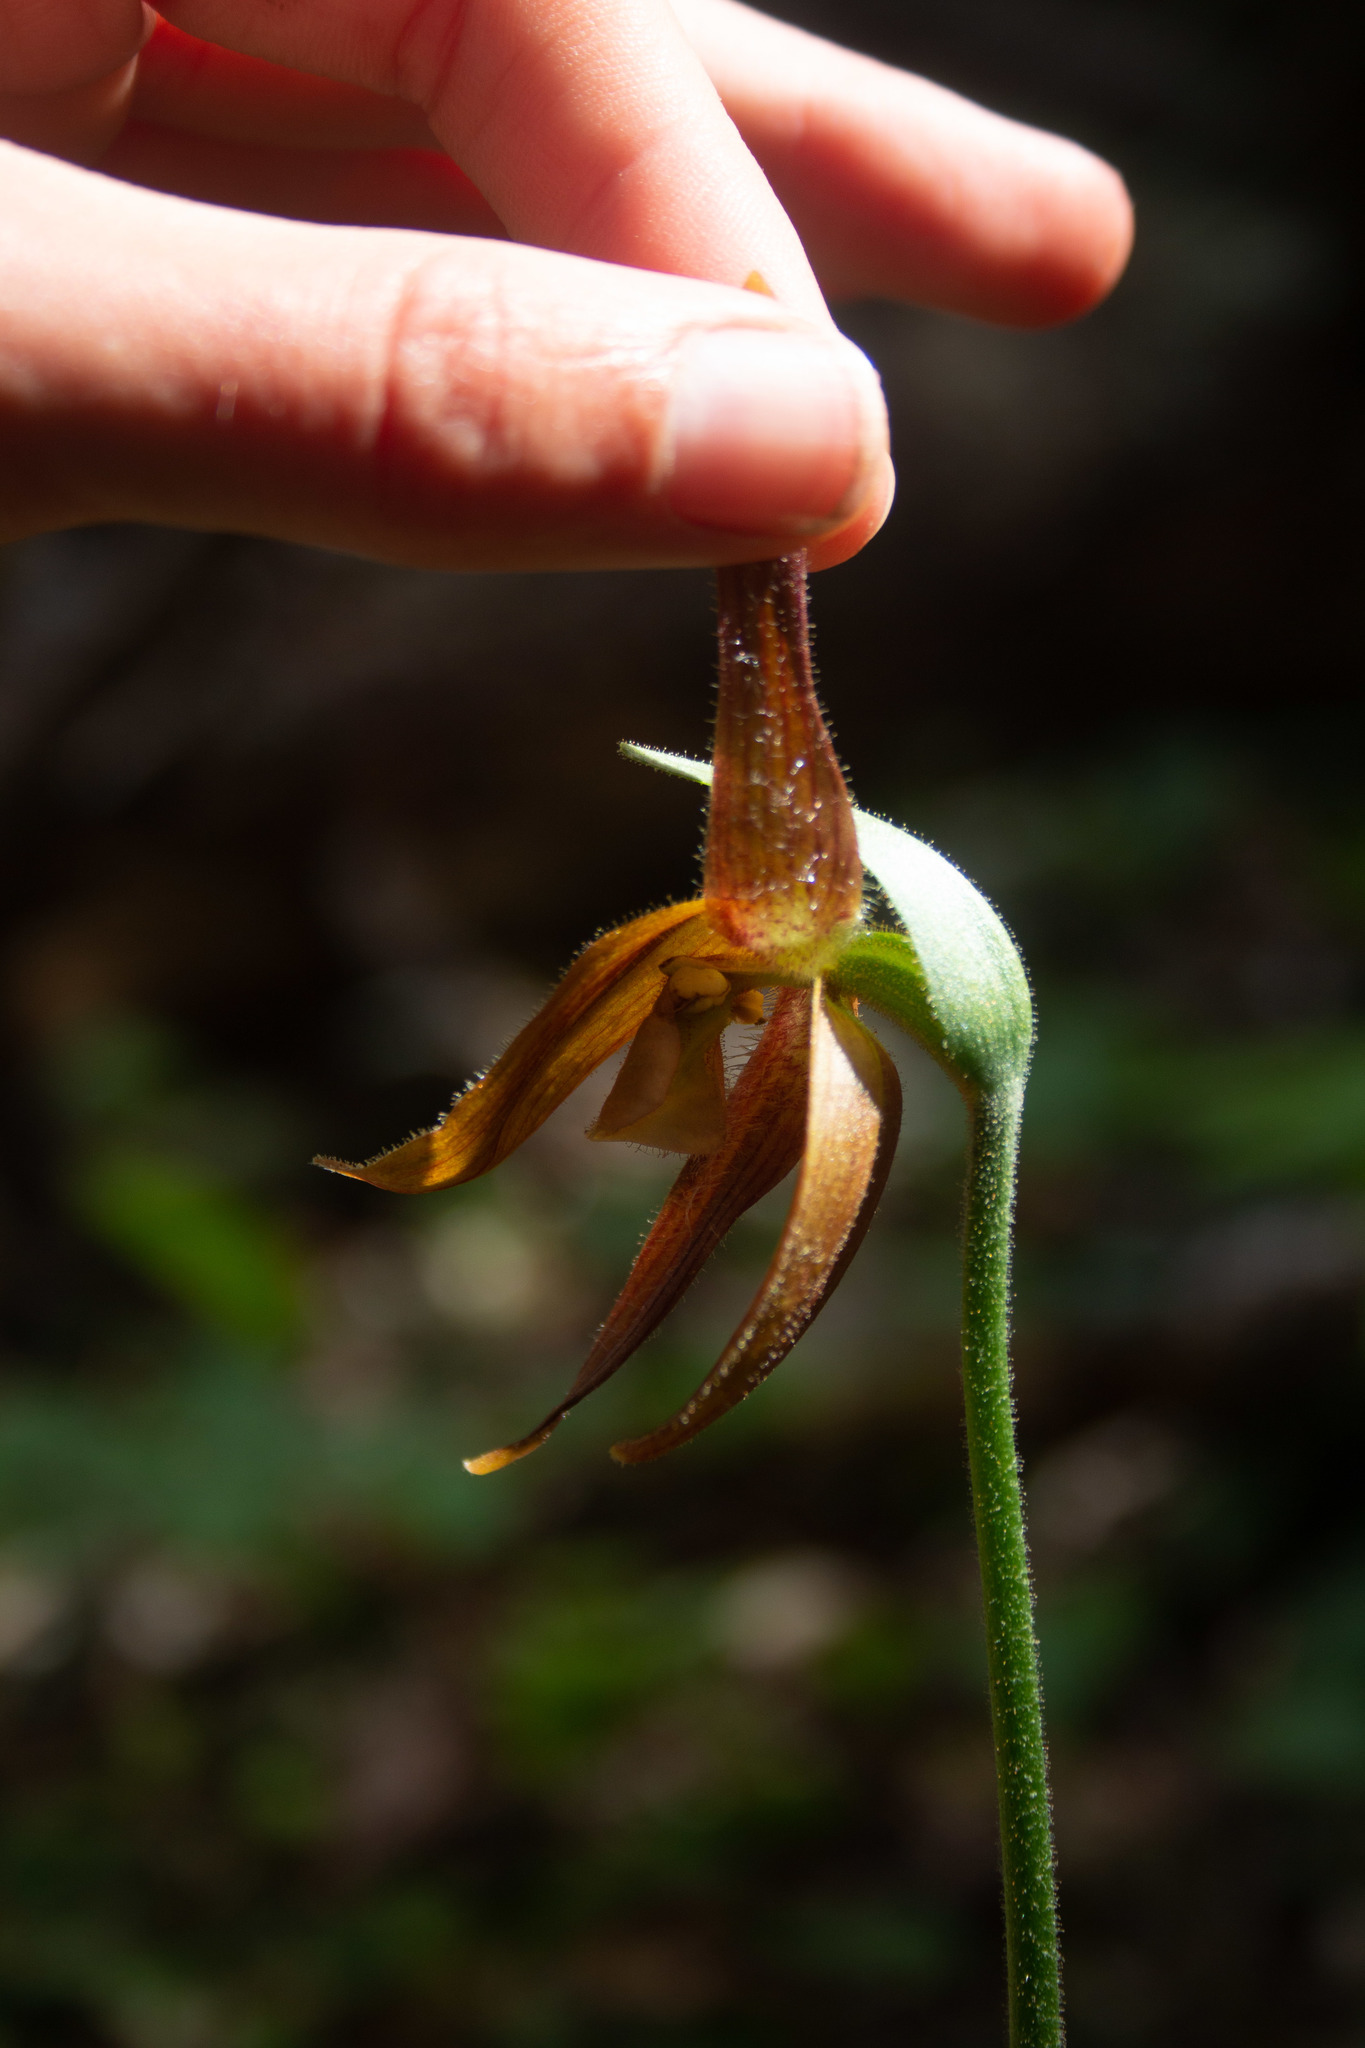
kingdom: Plantae
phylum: Tracheophyta
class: Liliopsida
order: Asparagales
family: Orchidaceae
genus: Cypripedium
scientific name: Cypripedium acaule
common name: Pink lady's-slipper
